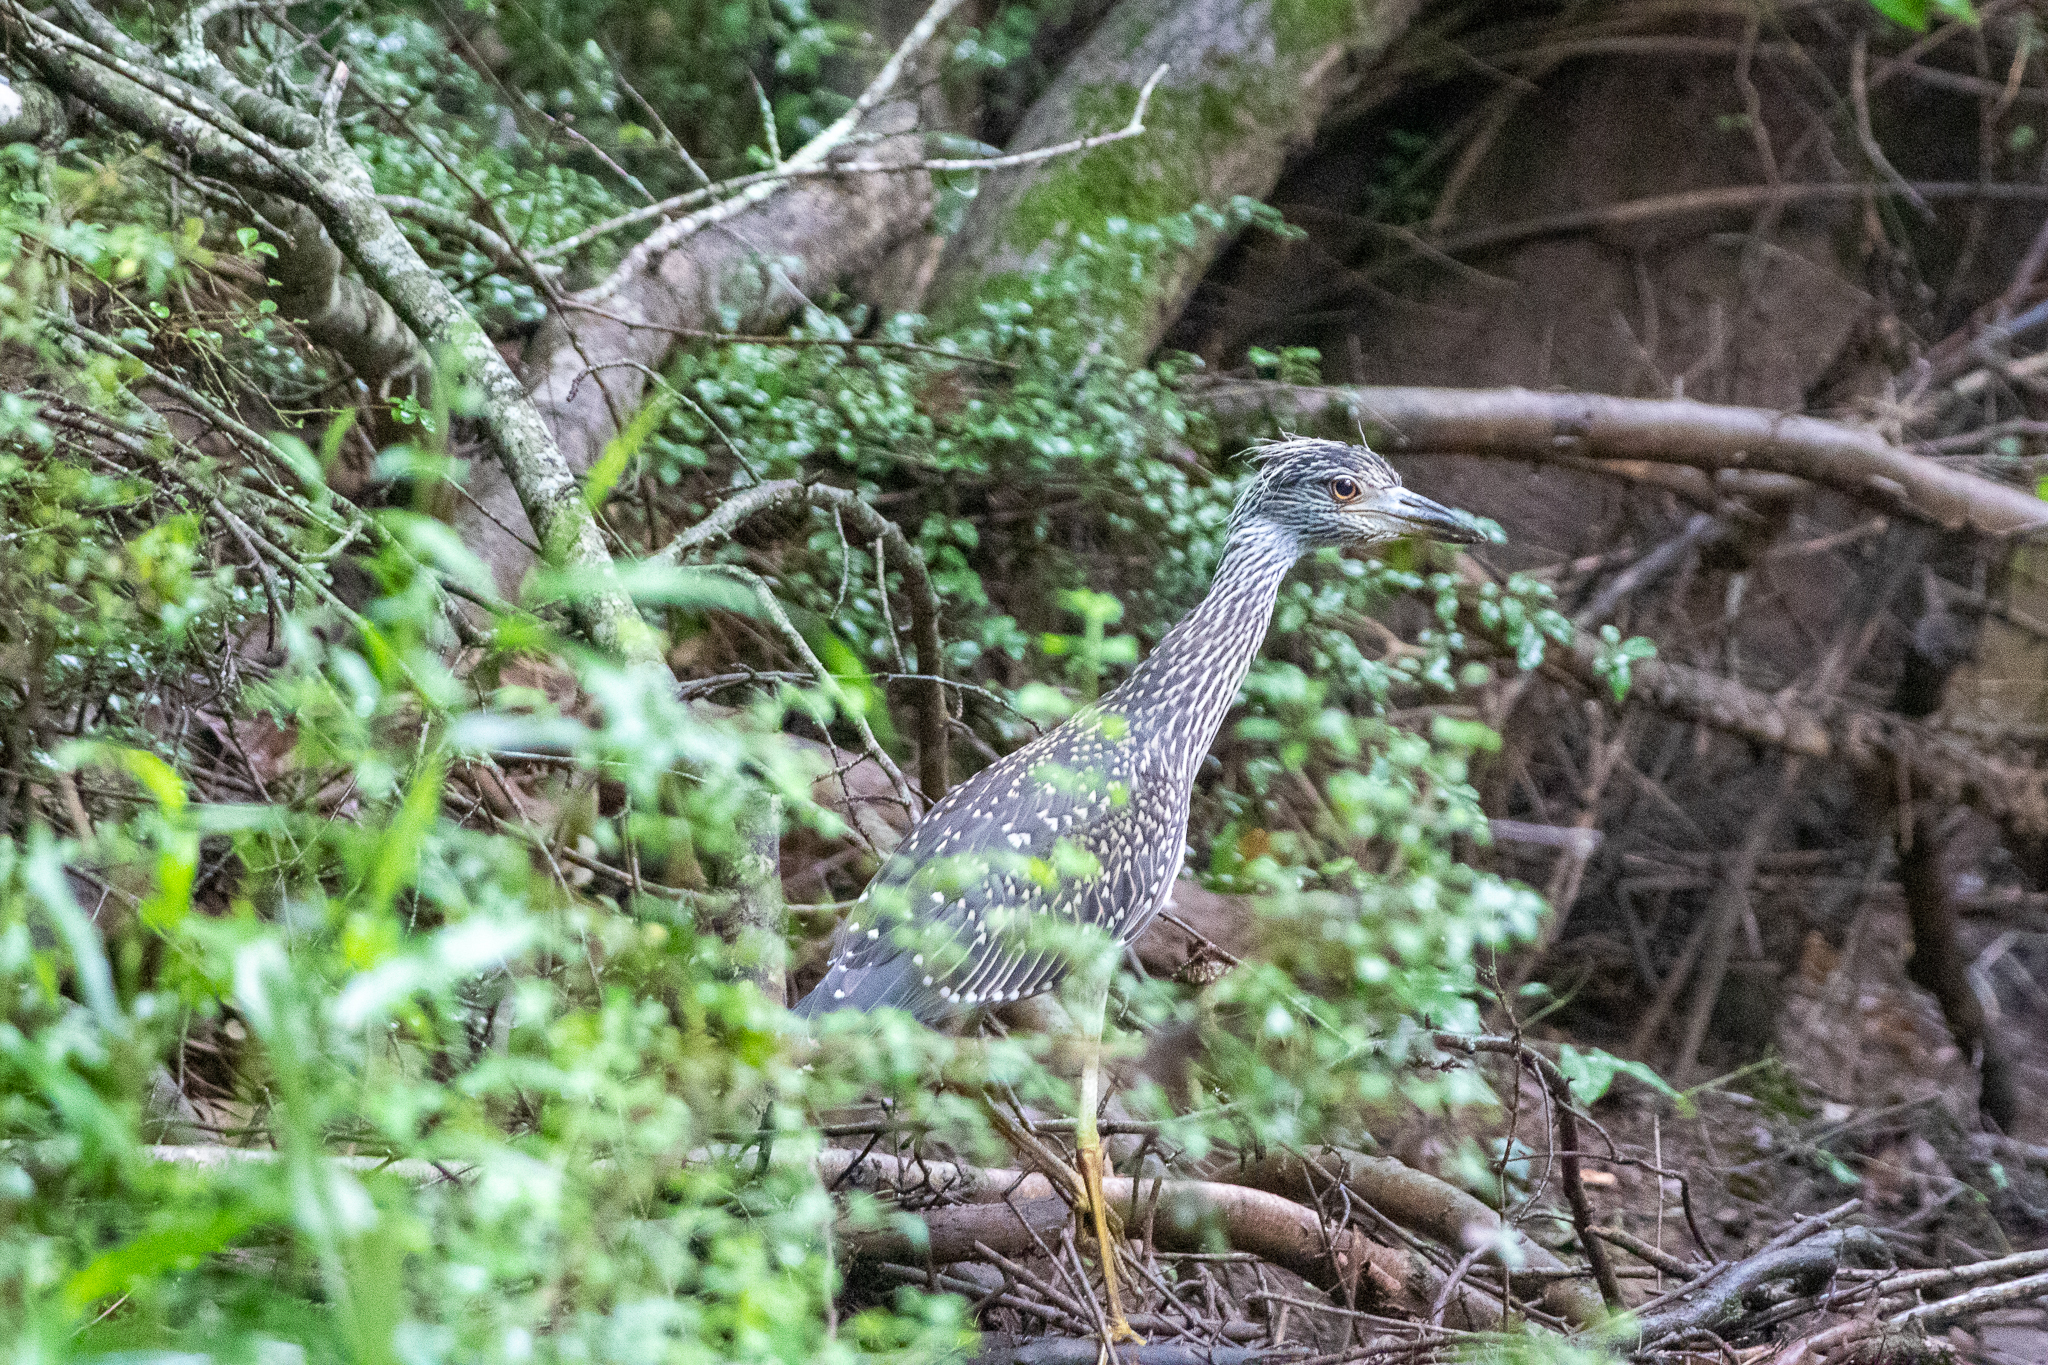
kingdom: Animalia
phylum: Chordata
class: Aves
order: Pelecaniformes
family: Ardeidae
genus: Nyctanassa
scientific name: Nyctanassa violacea
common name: Yellow-crowned night heron
